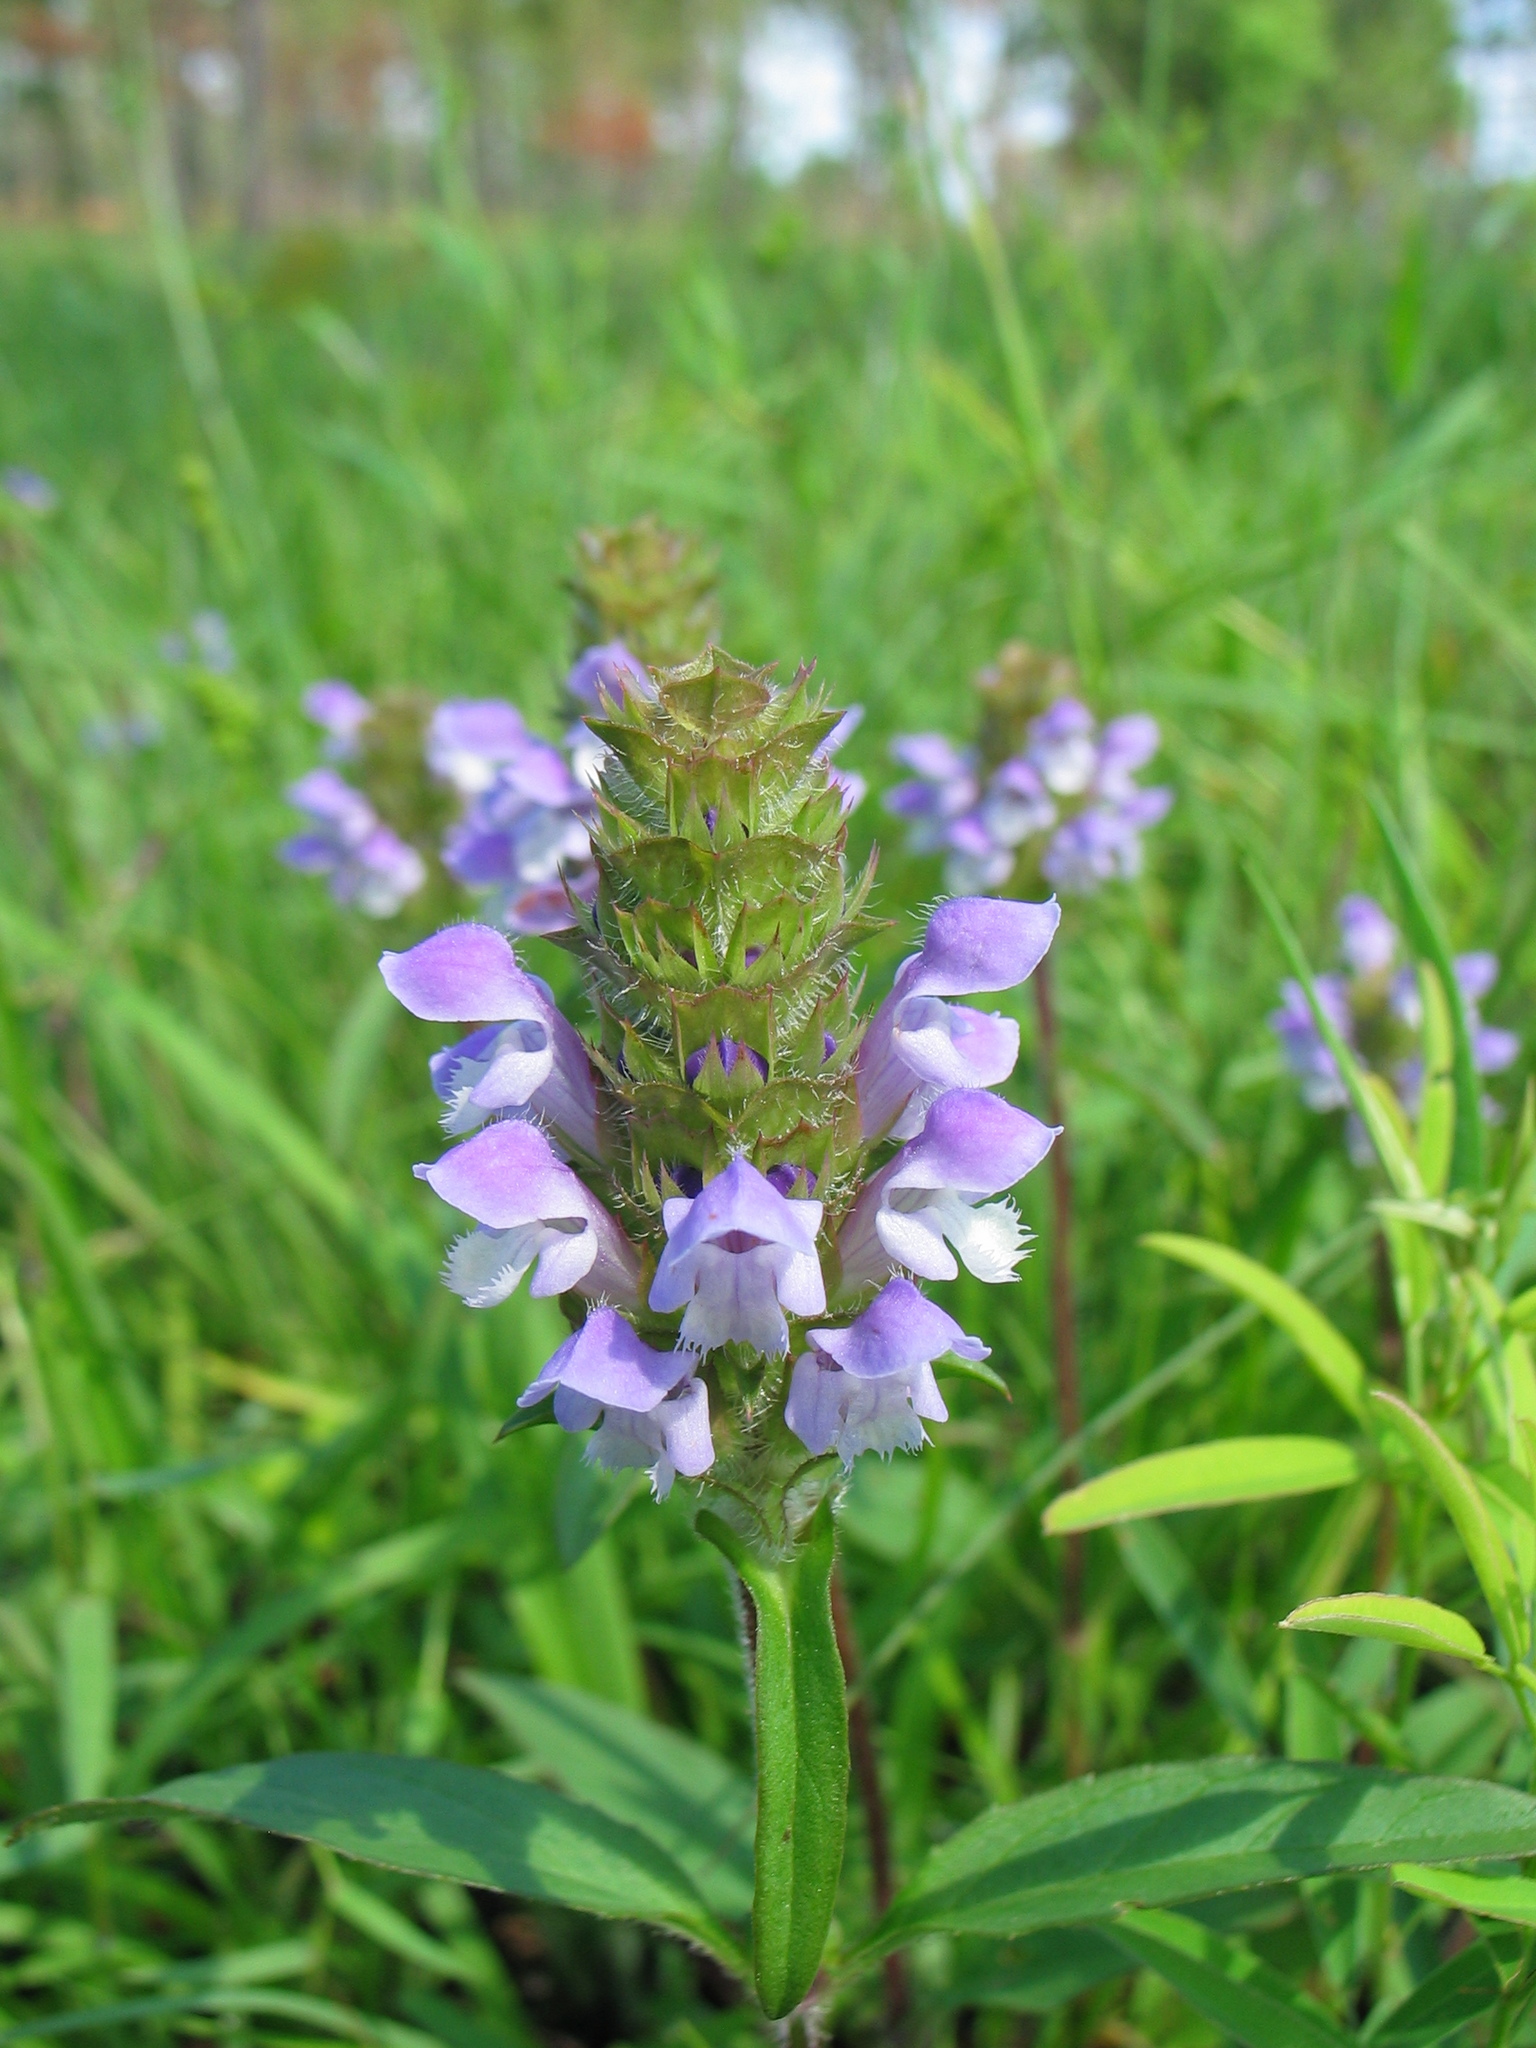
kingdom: Plantae
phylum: Tracheophyta
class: Magnoliopsida
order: Lamiales
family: Lamiaceae
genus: Prunella
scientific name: Prunella vulgaris
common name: Heal-all
